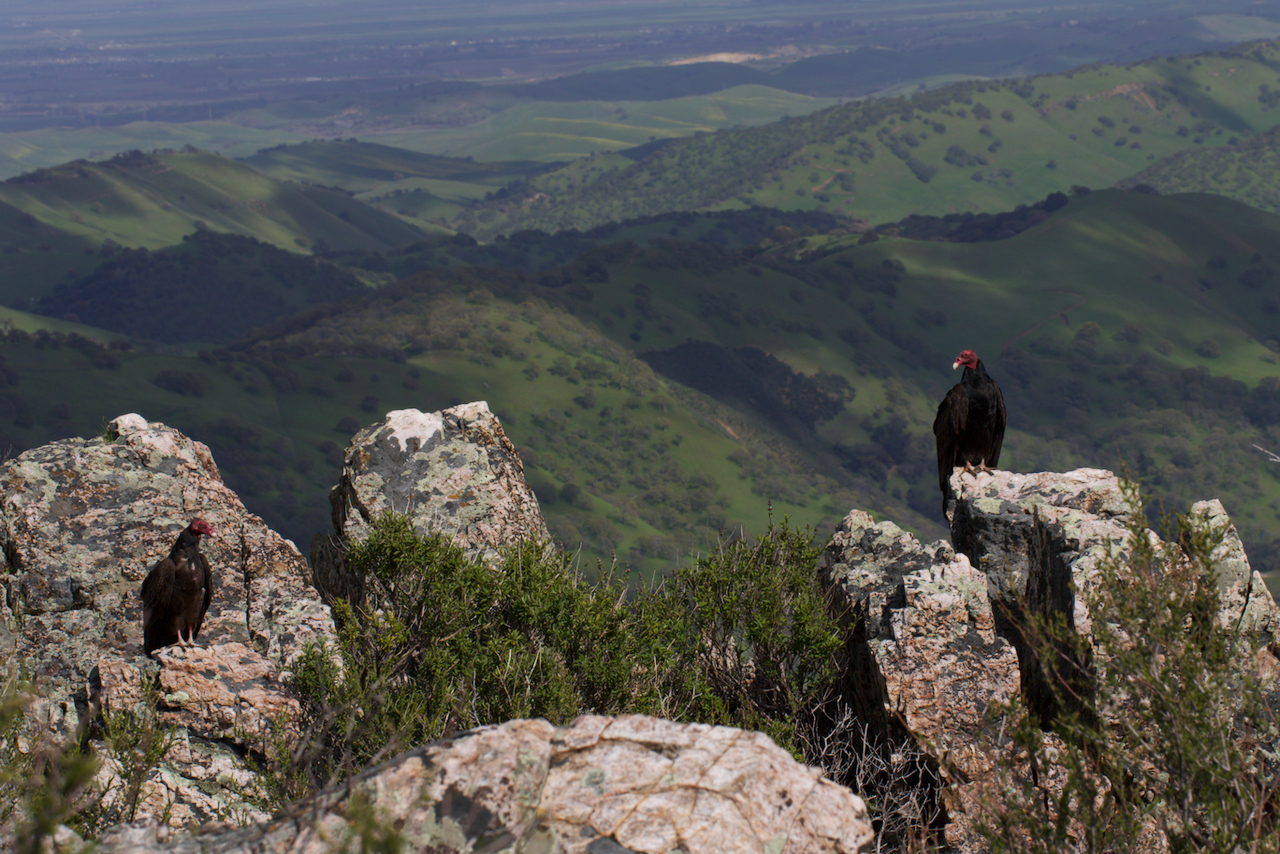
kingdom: Animalia
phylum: Chordata
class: Aves
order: Accipitriformes
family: Cathartidae
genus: Cathartes
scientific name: Cathartes aura
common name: Turkey vulture
